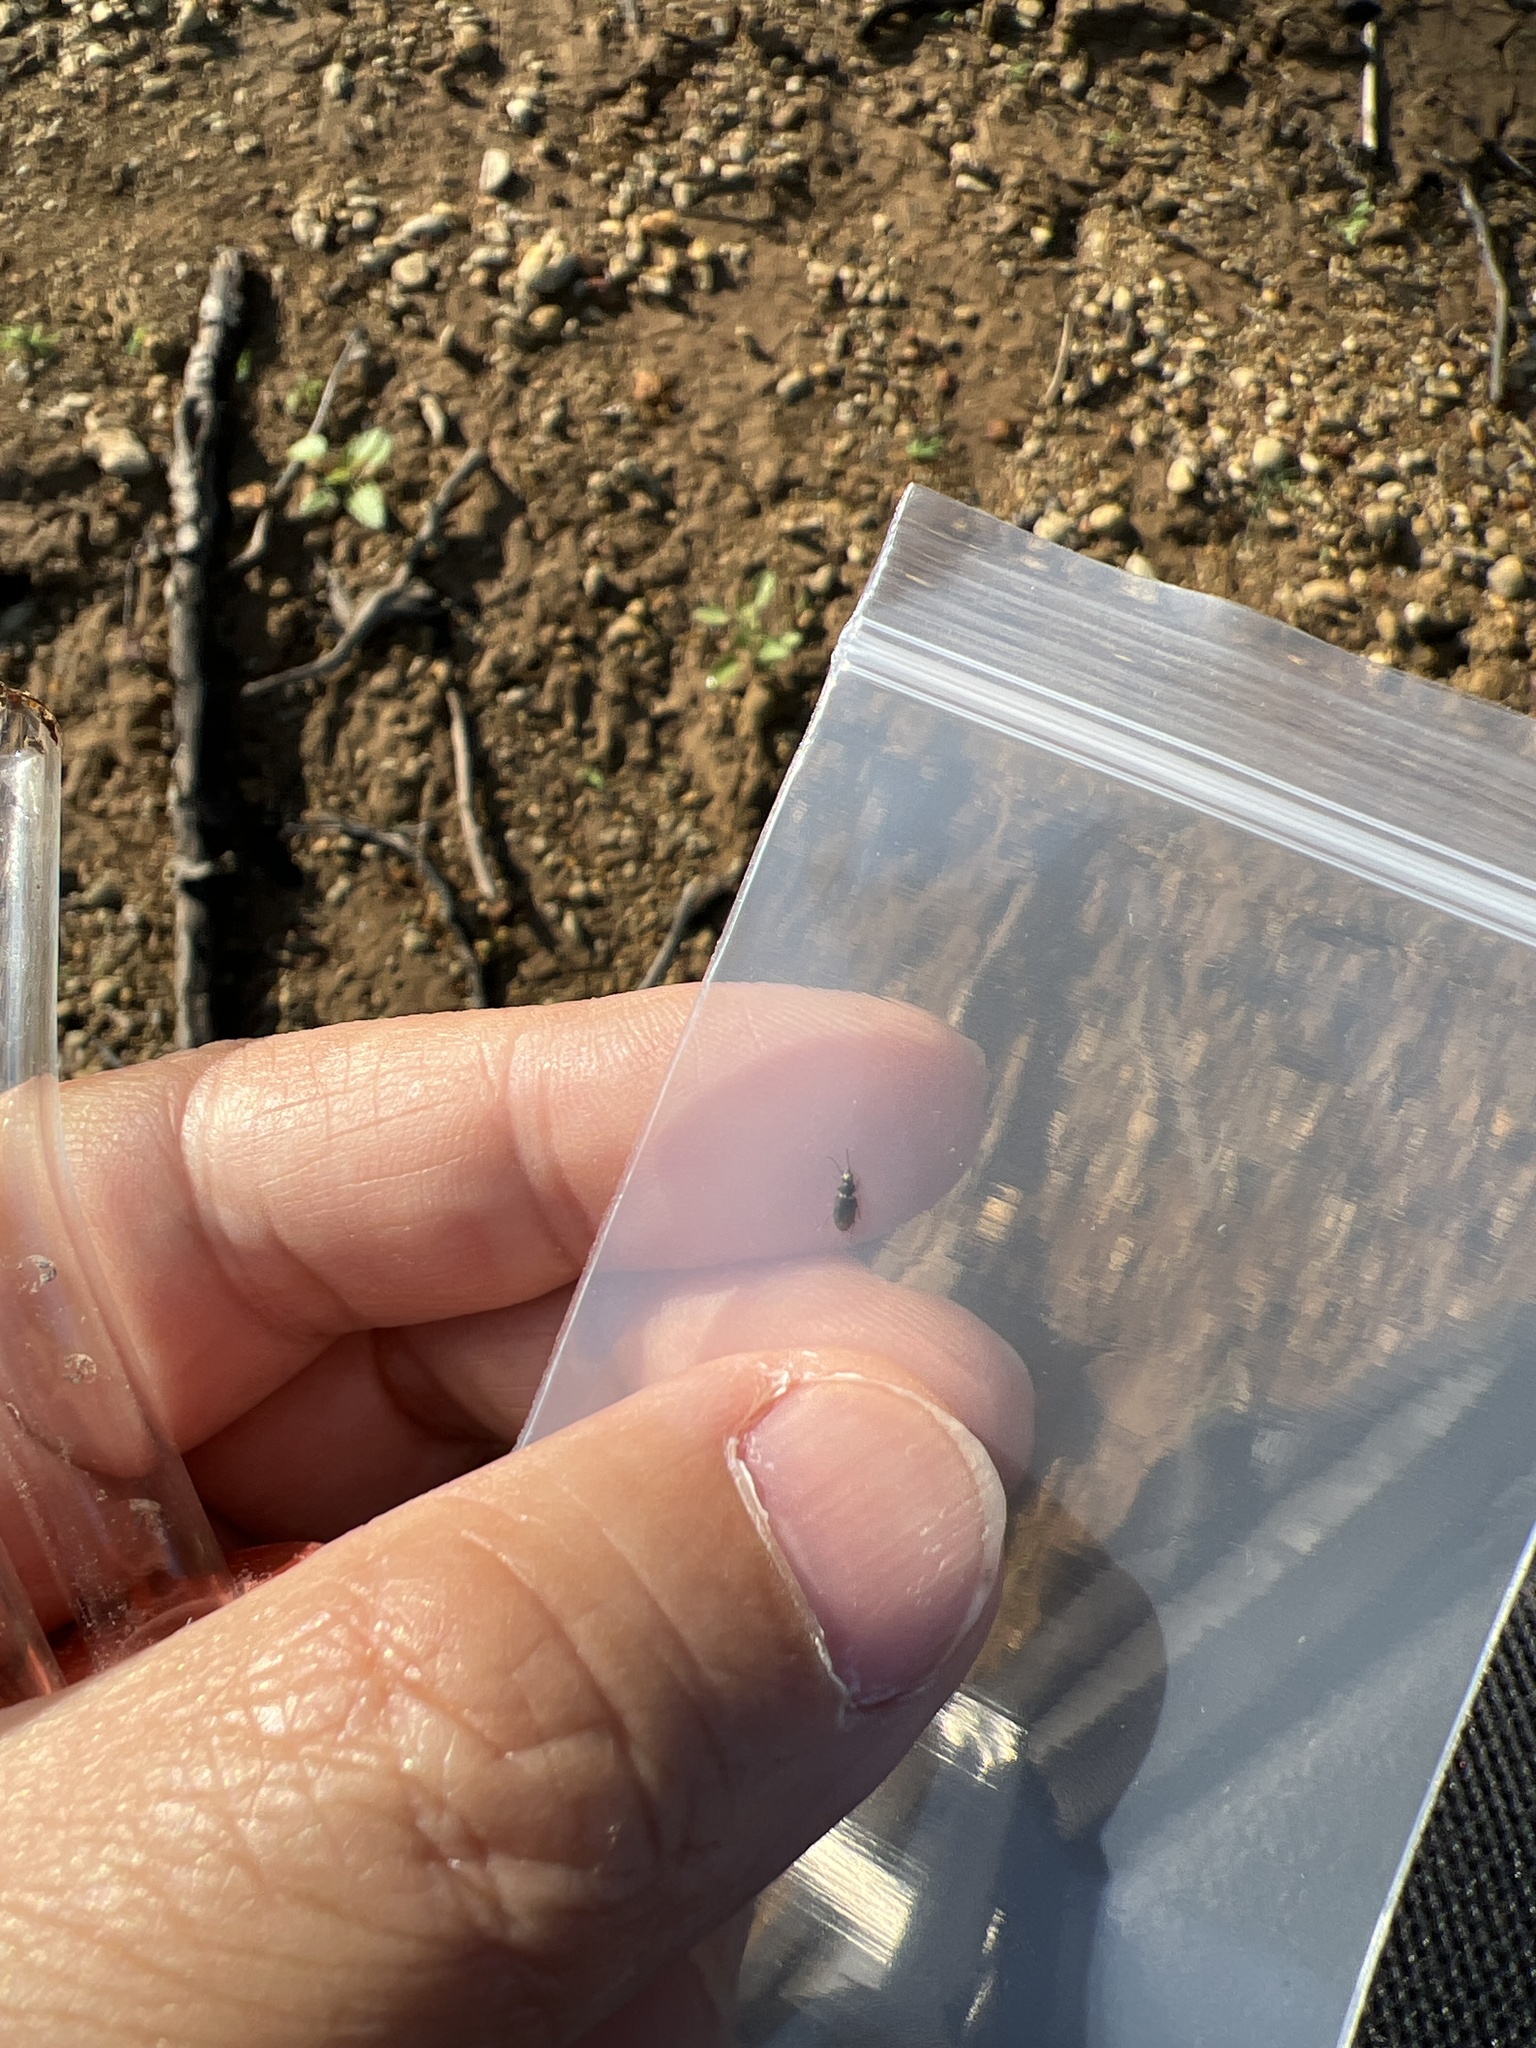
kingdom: Animalia
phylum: Arthropoda
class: Insecta
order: Coleoptera
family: Carabidae
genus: Bembidion
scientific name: Bembidion impotens
